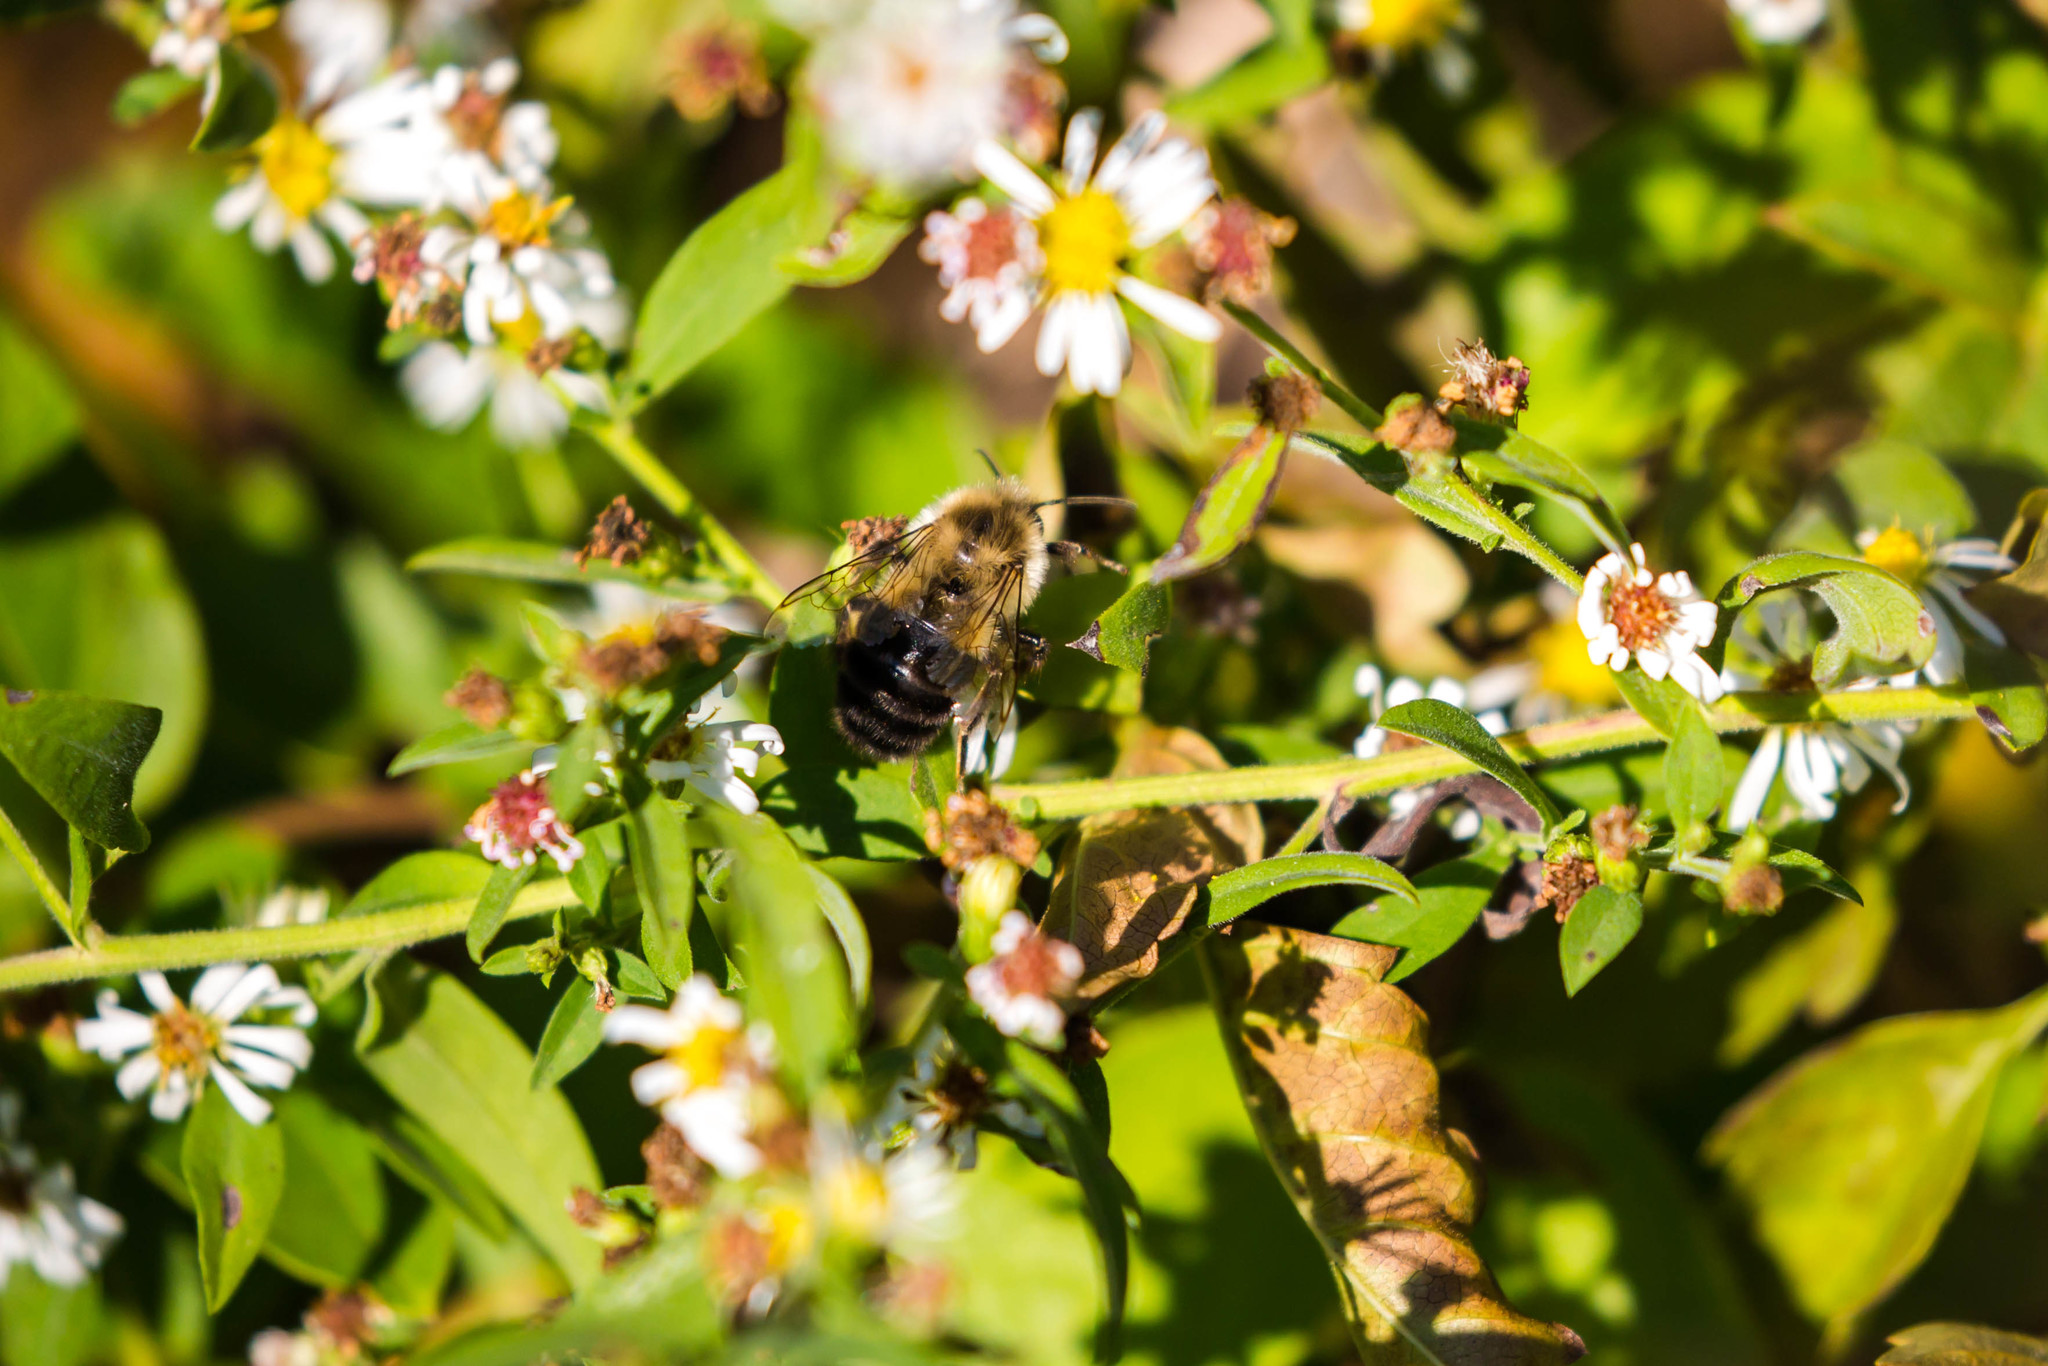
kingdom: Animalia
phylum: Arthropoda
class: Insecta
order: Hymenoptera
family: Apidae
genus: Bombus
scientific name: Bombus impatiens
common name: Common eastern bumble bee
